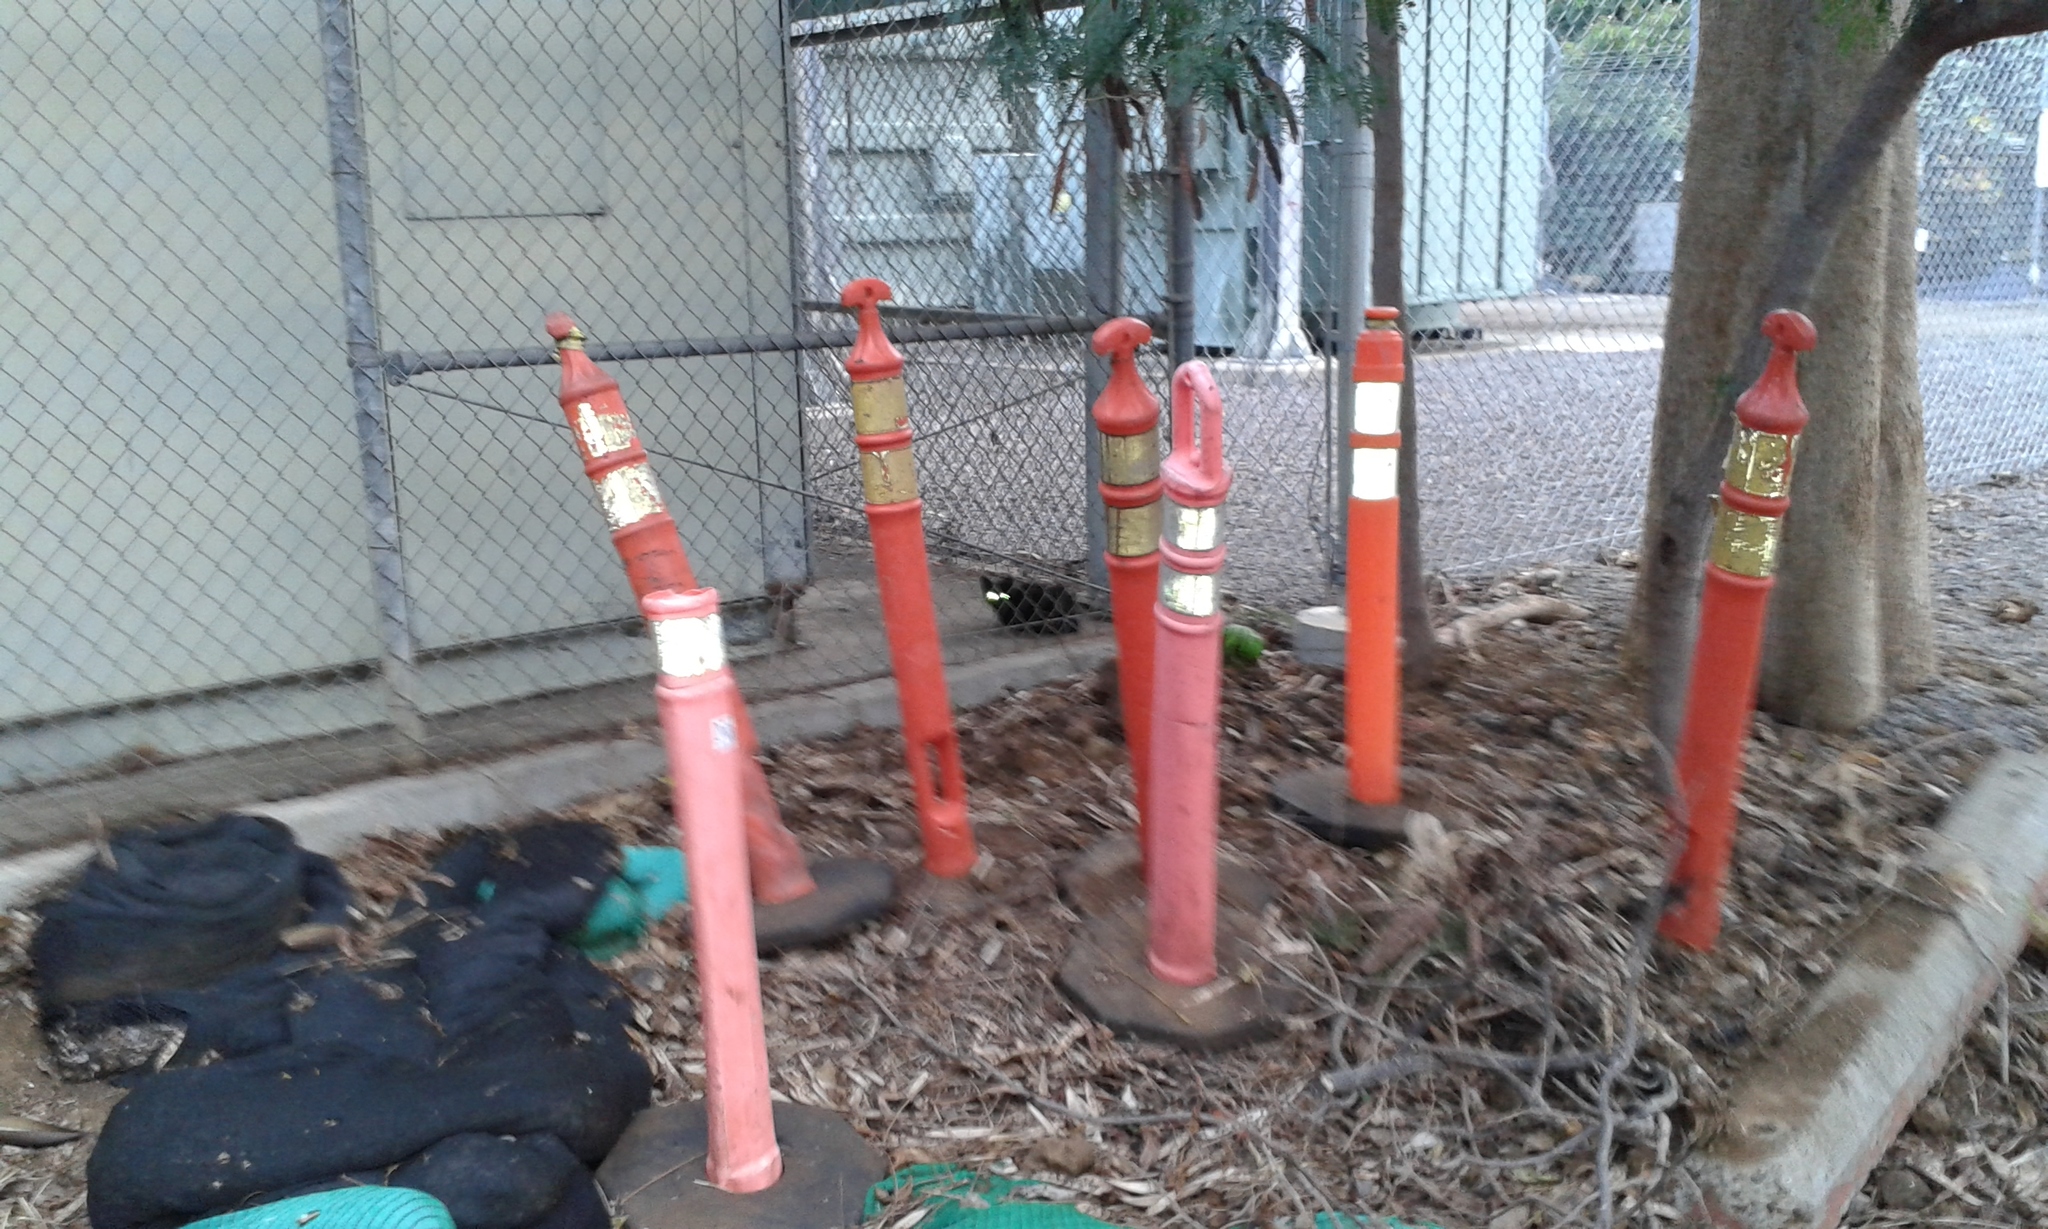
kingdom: Animalia
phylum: Chordata
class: Mammalia
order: Carnivora
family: Felidae
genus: Felis
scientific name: Felis catus
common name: Domestic cat
